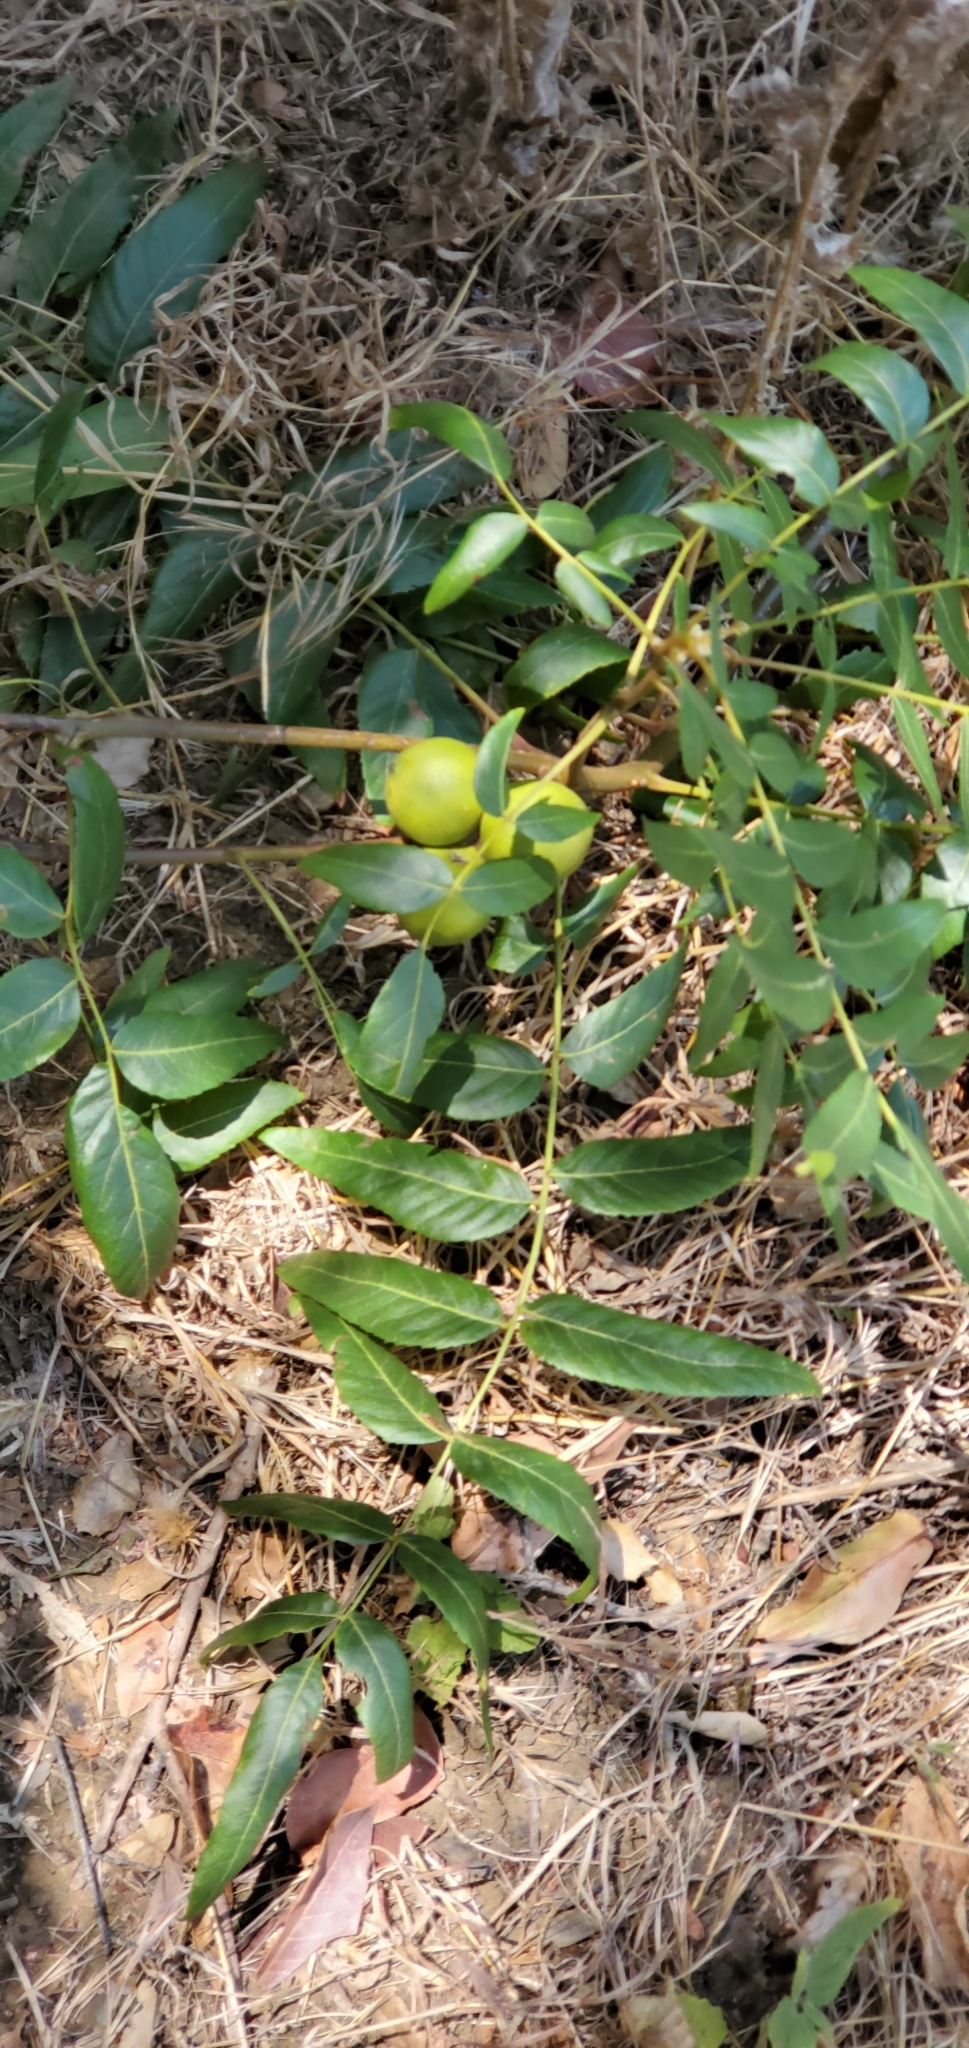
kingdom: Plantae
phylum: Tracheophyta
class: Magnoliopsida
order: Fagales
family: Juglandaceae
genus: Juglans
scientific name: Juglans californica
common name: Southern california black walnut
